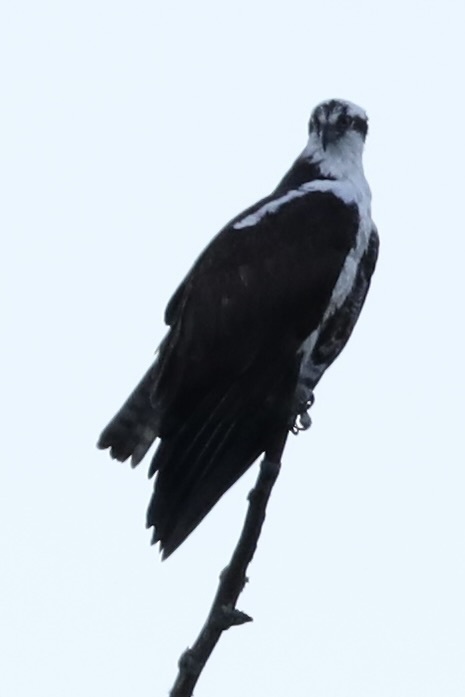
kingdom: Animalia
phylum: Chordata
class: Aves
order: Accipitriformes
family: Pandionidae
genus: Pandion
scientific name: Pandion haliaetus
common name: Osprey
